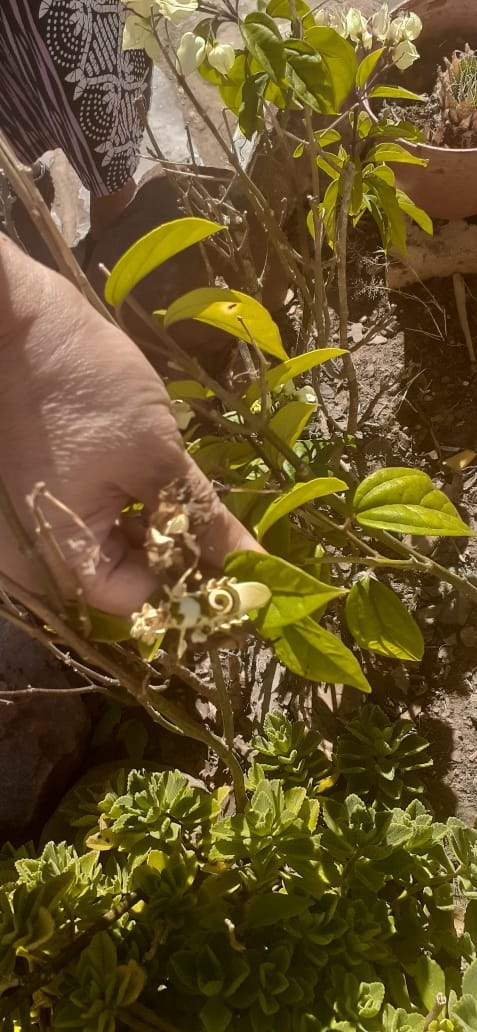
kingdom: Animalia
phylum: Arthropoda
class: Insecta
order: Mantodea
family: Hymenopodidae
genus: Pseudocreobotra
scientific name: Pseudocreobotra wahlbergi
